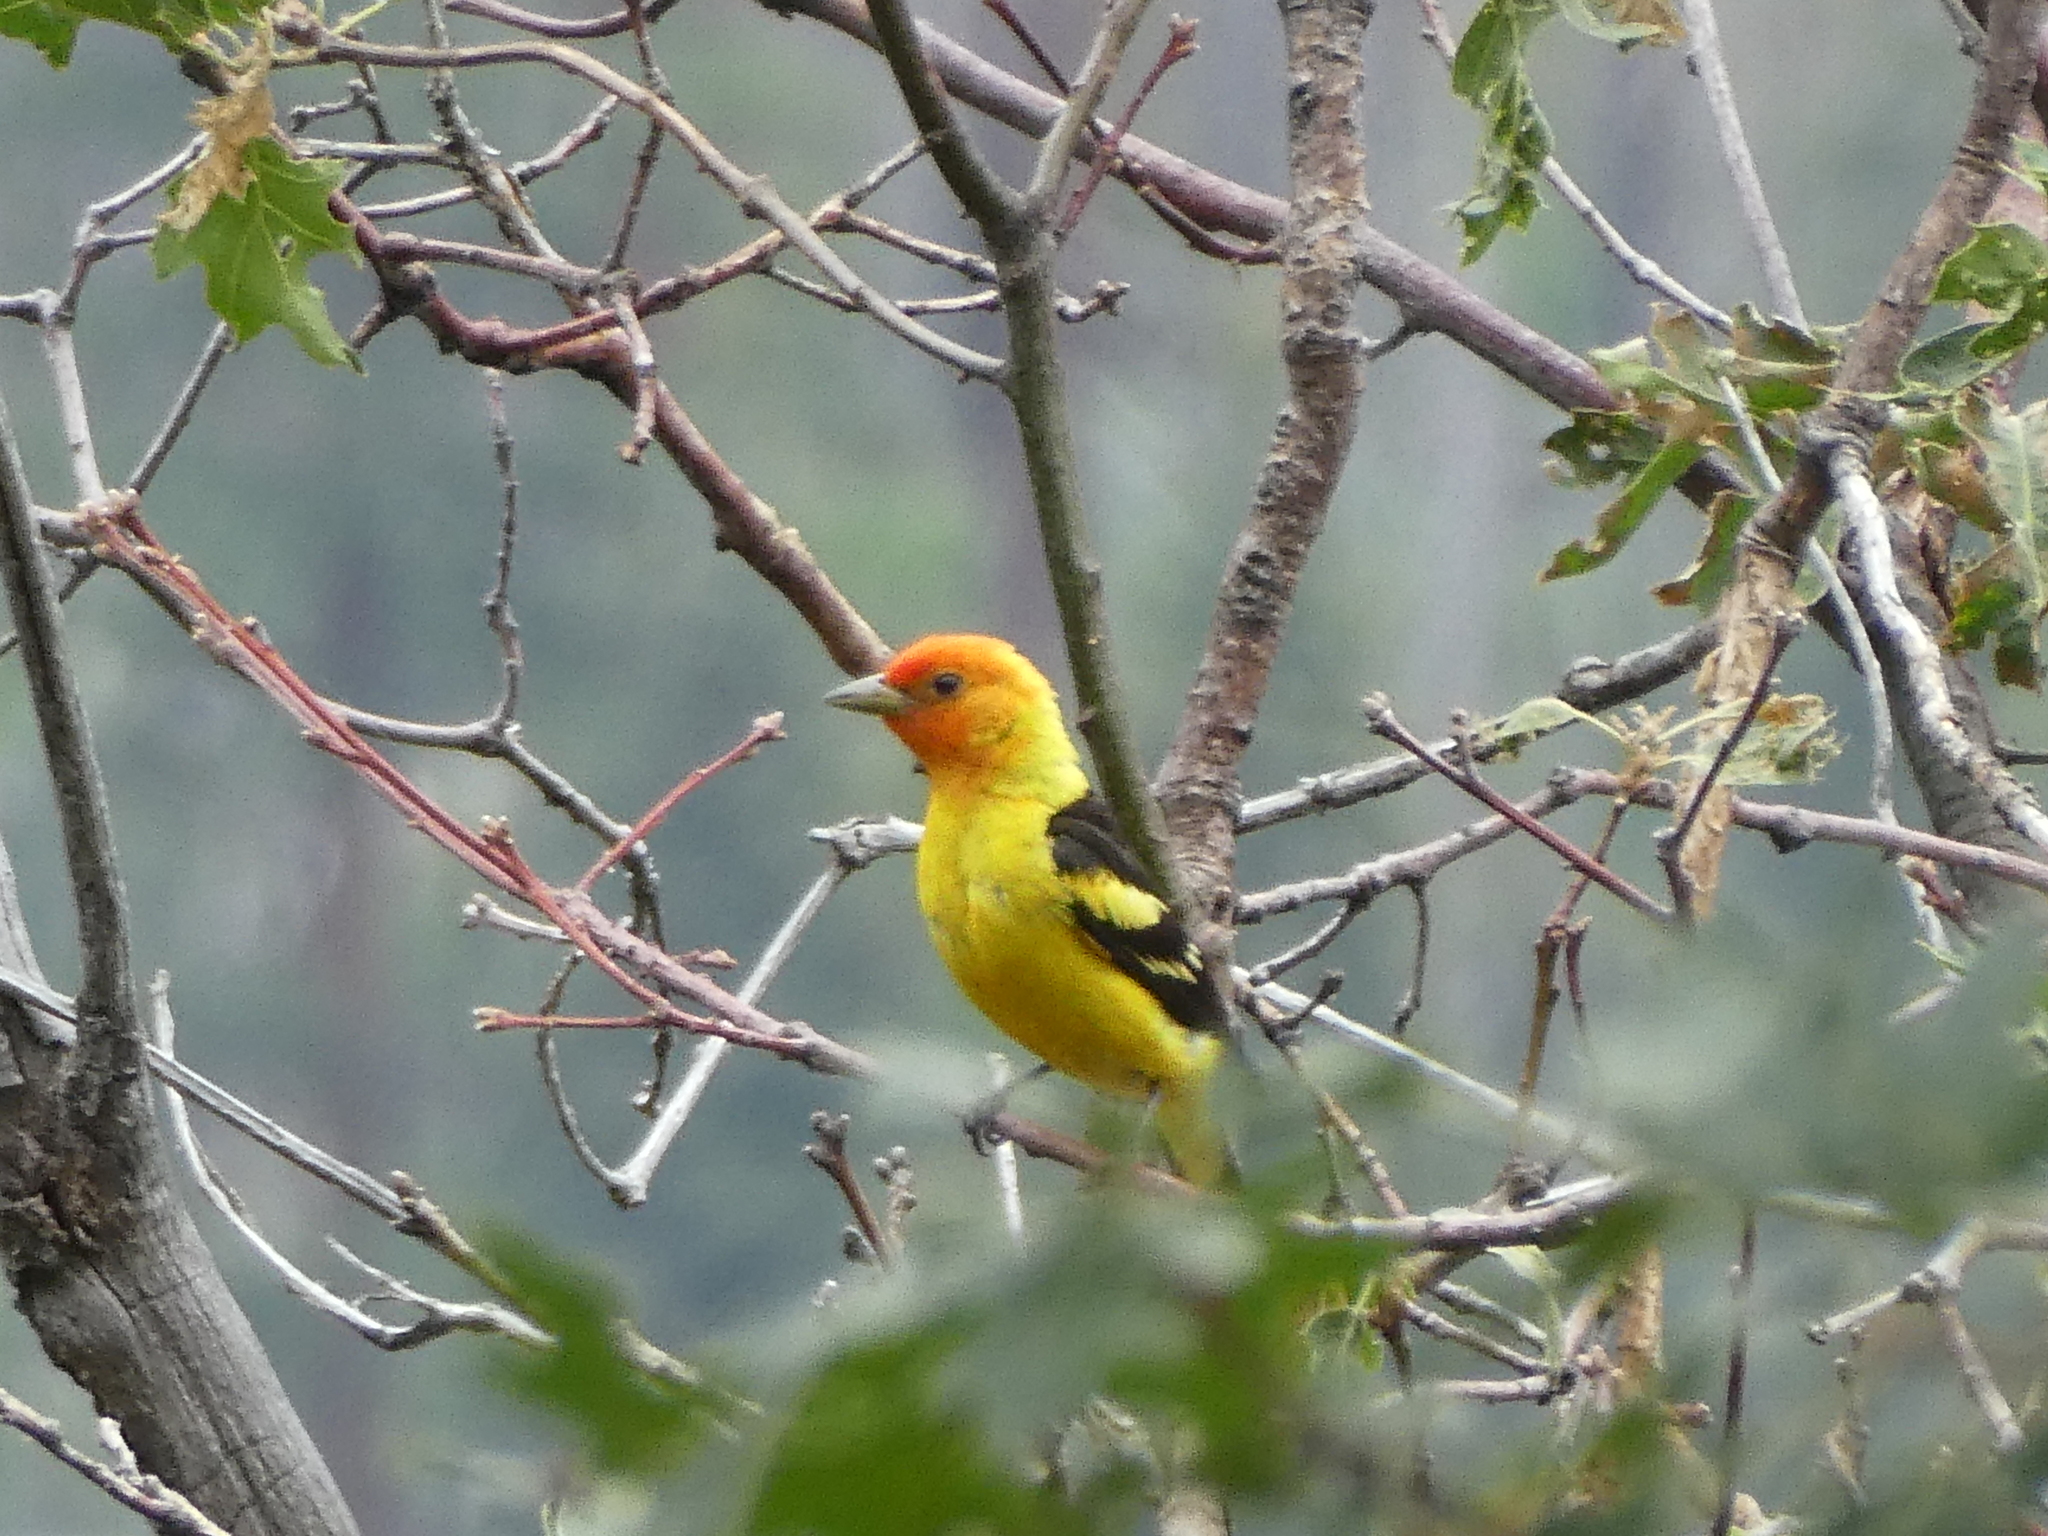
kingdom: Animalia
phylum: Chordata
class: Aves
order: Passeriformes
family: Cardinalidae
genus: Piranga
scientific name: Piranga ludoviciana
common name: Western tanager
